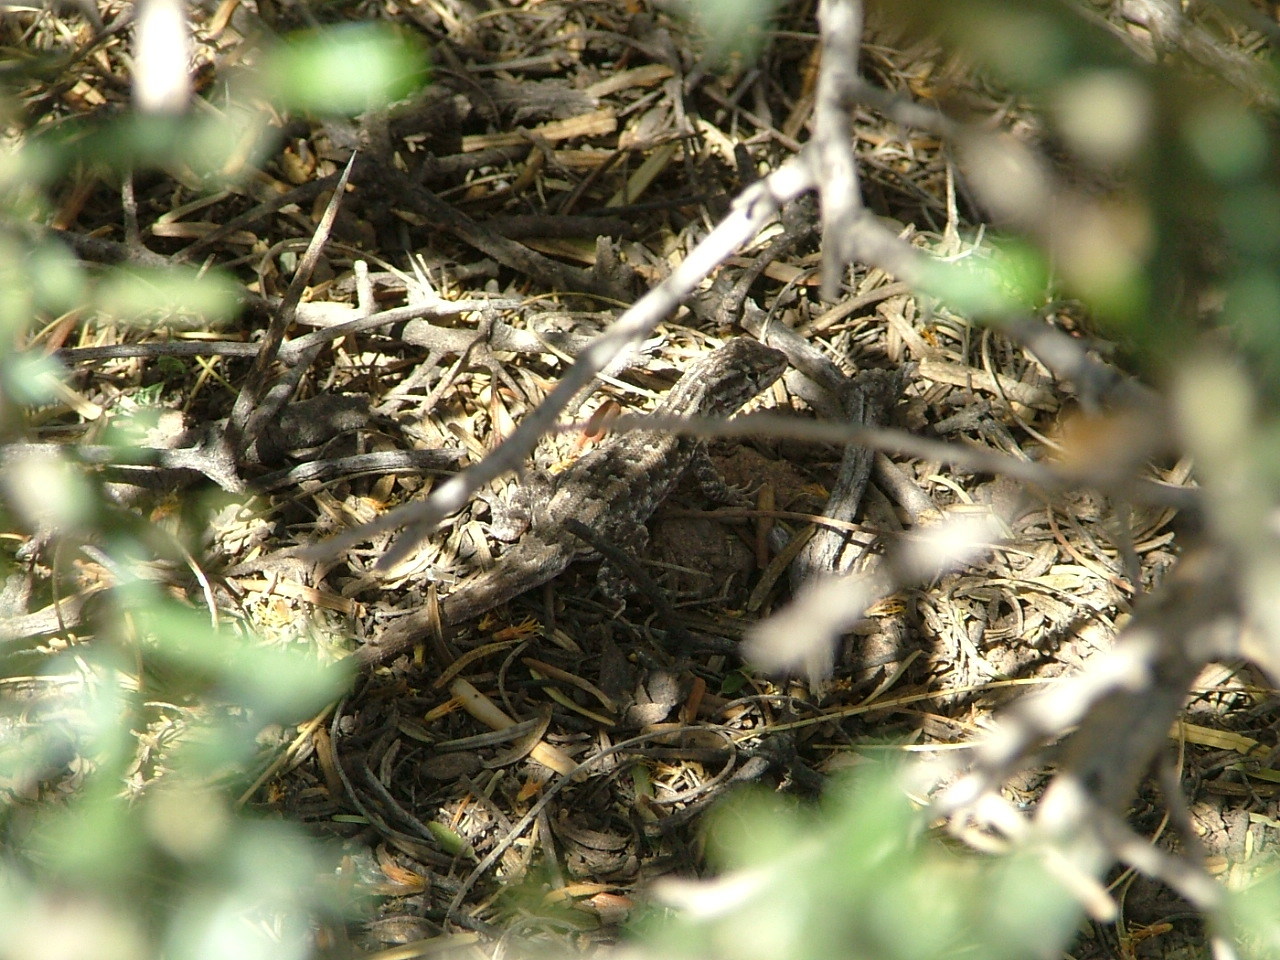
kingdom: Animalia
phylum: Chordata
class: Squamata
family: Liolaemidae
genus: Liolaemus
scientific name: Liolaemus darwinii
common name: Darwin's tree iguana
